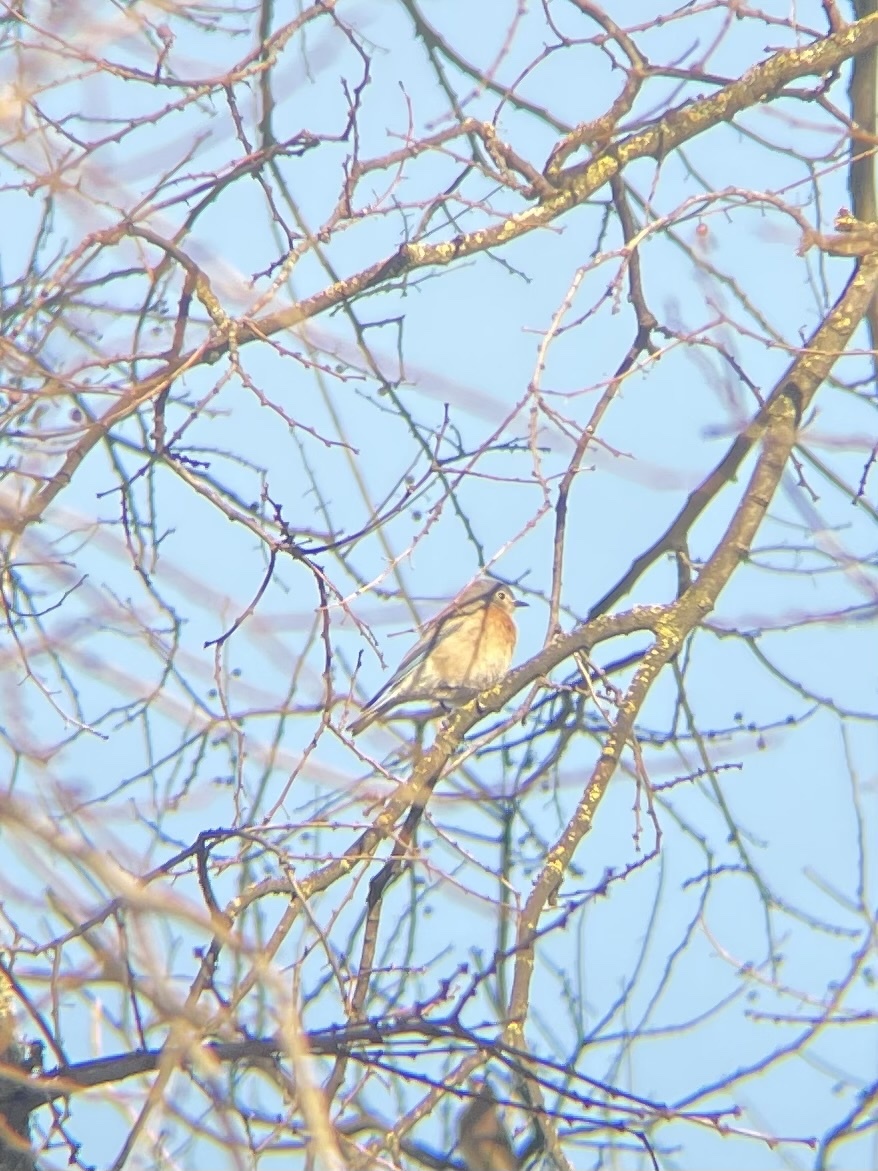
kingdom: Animalia
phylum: Chordata
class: Aves
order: Passeriformes
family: Turdidae
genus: Sialia
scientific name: Sialia mexicana
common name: Western bluebird
